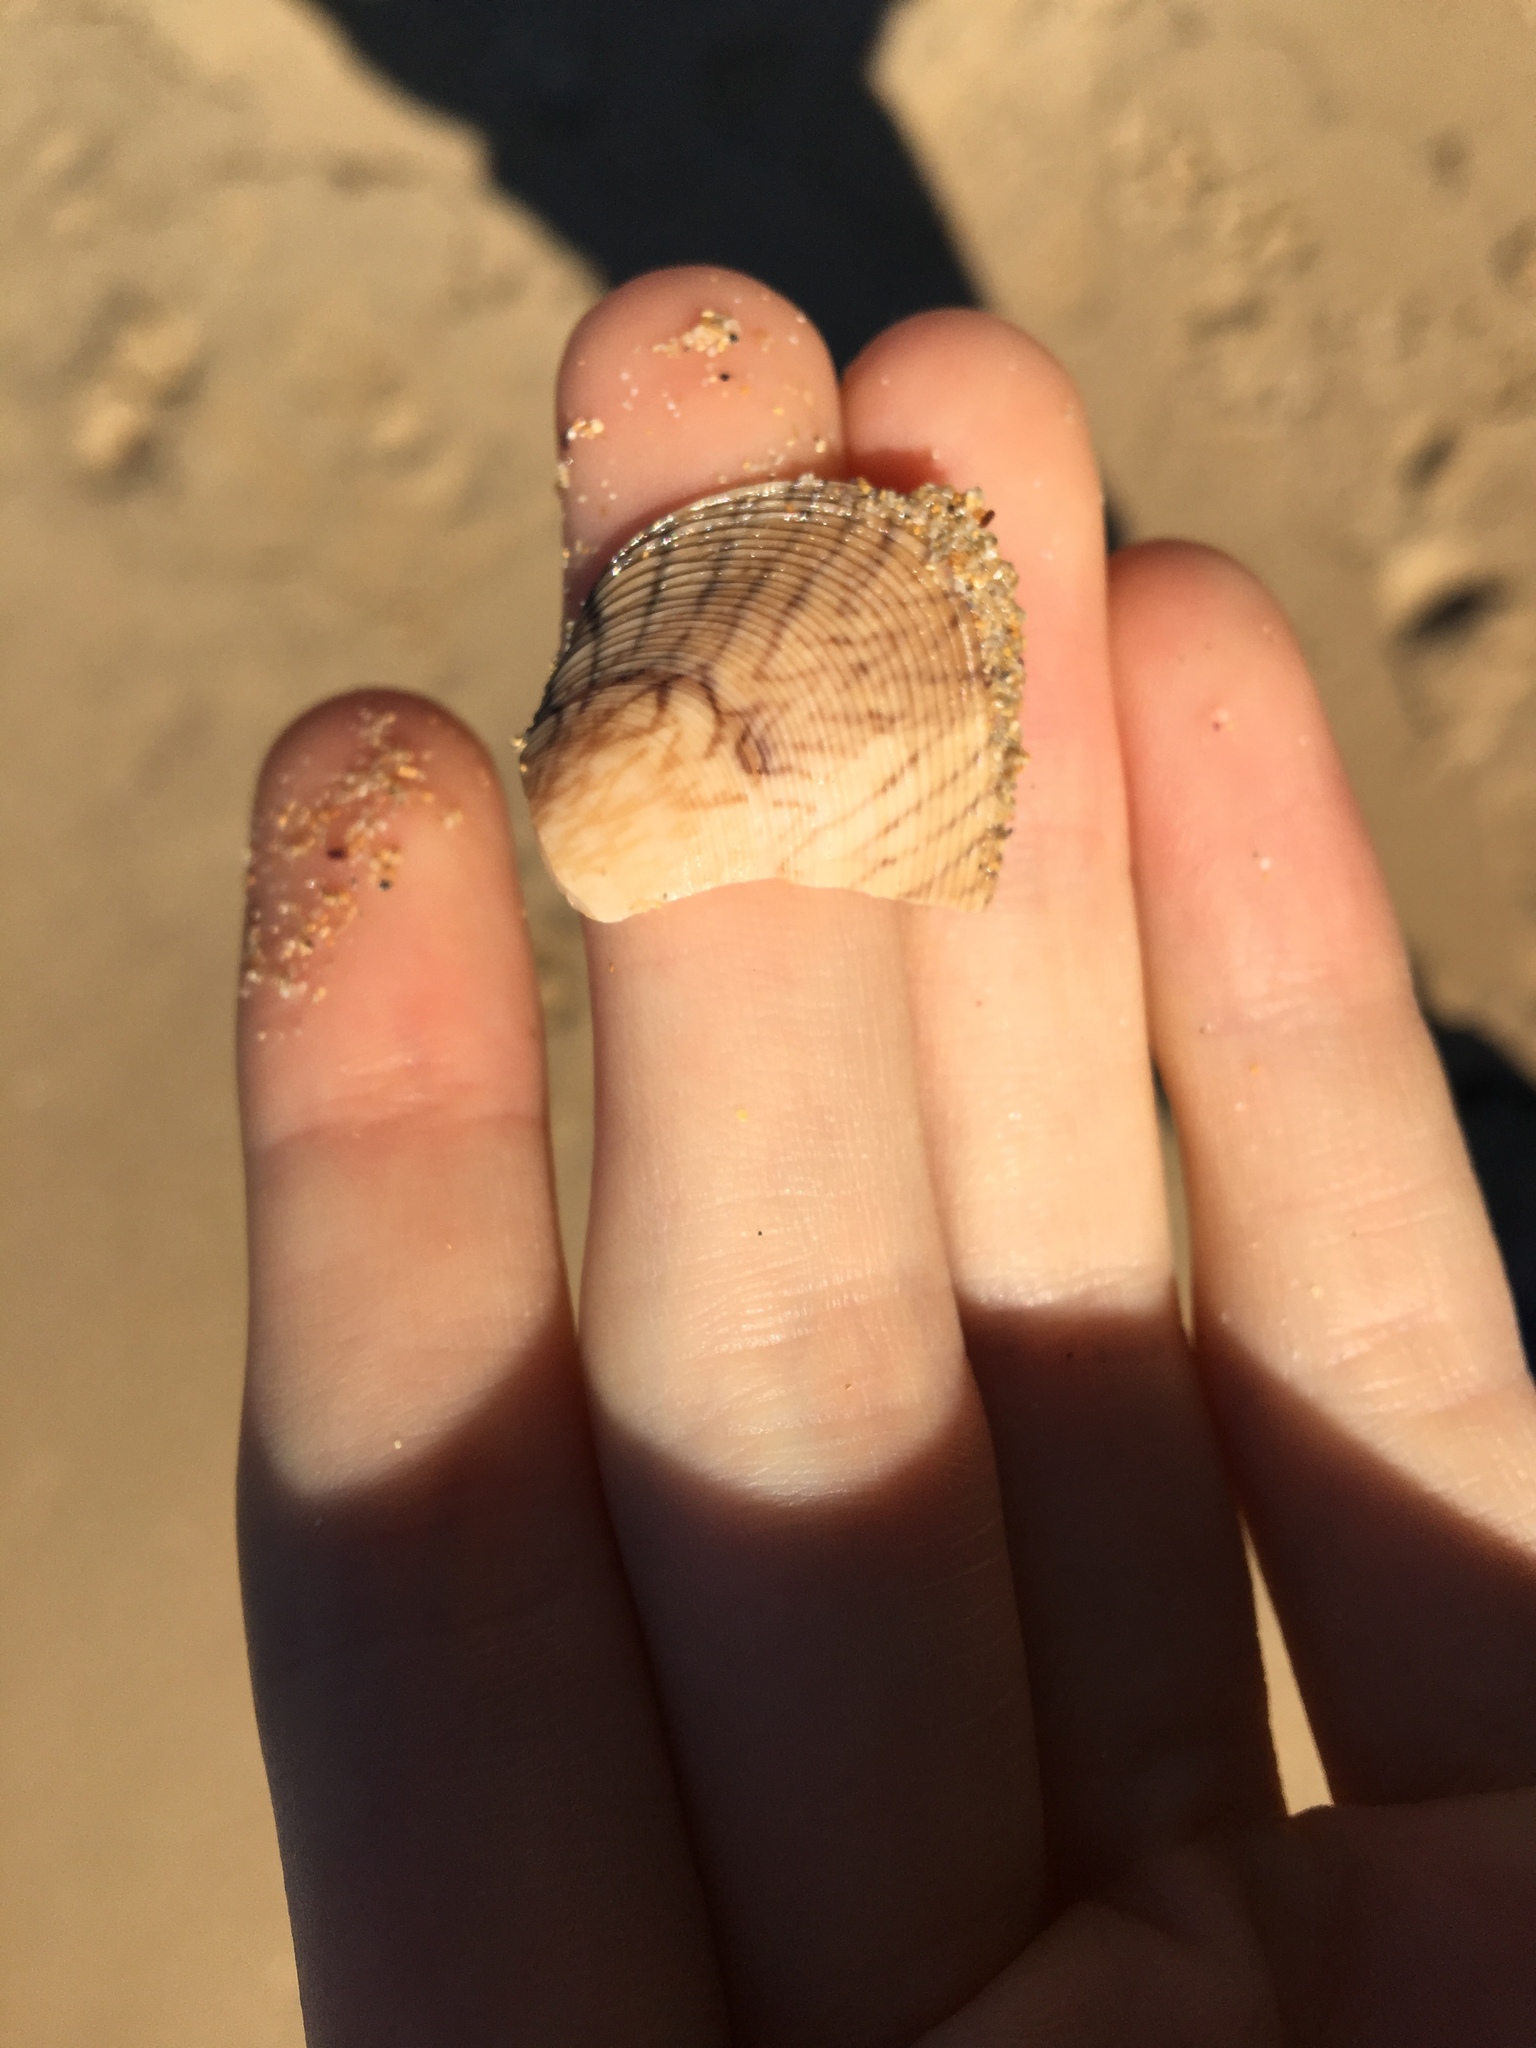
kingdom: Animalia
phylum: Mollusca
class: Bivalvia
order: Venerida
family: Veneridae
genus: Tapes
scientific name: Tapes conspersus
